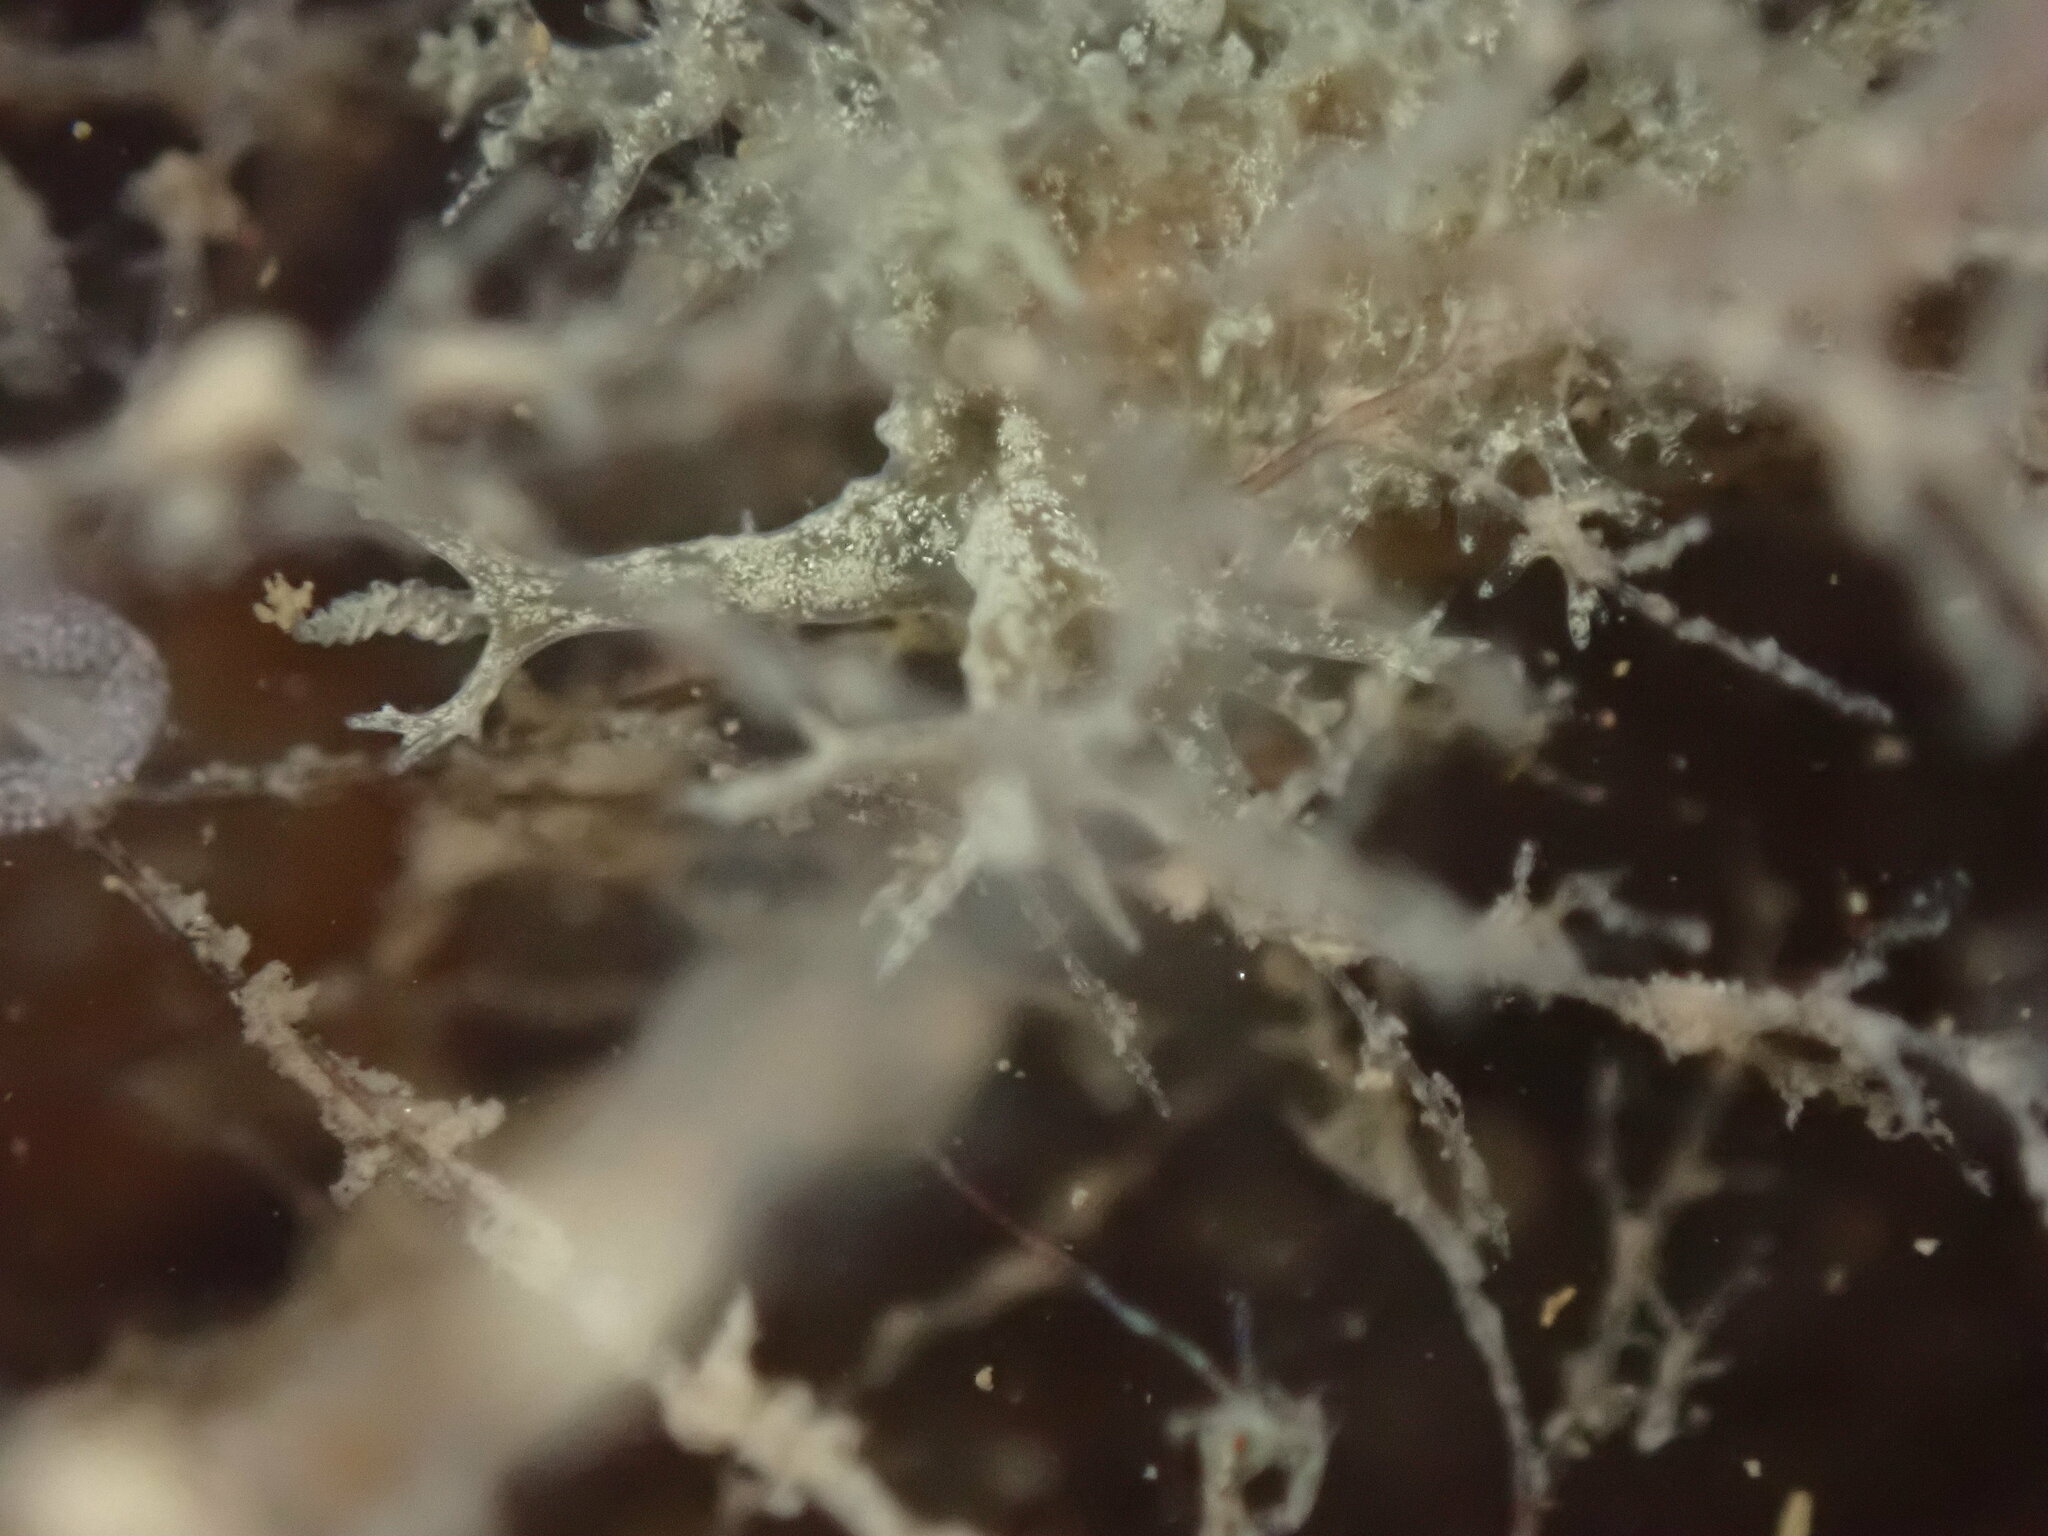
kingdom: Animalia
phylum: Mollusca
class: Gastropoda
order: Nudibranchia
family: Dendronotidae
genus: Dendronotus
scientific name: Dendronotus venustus
